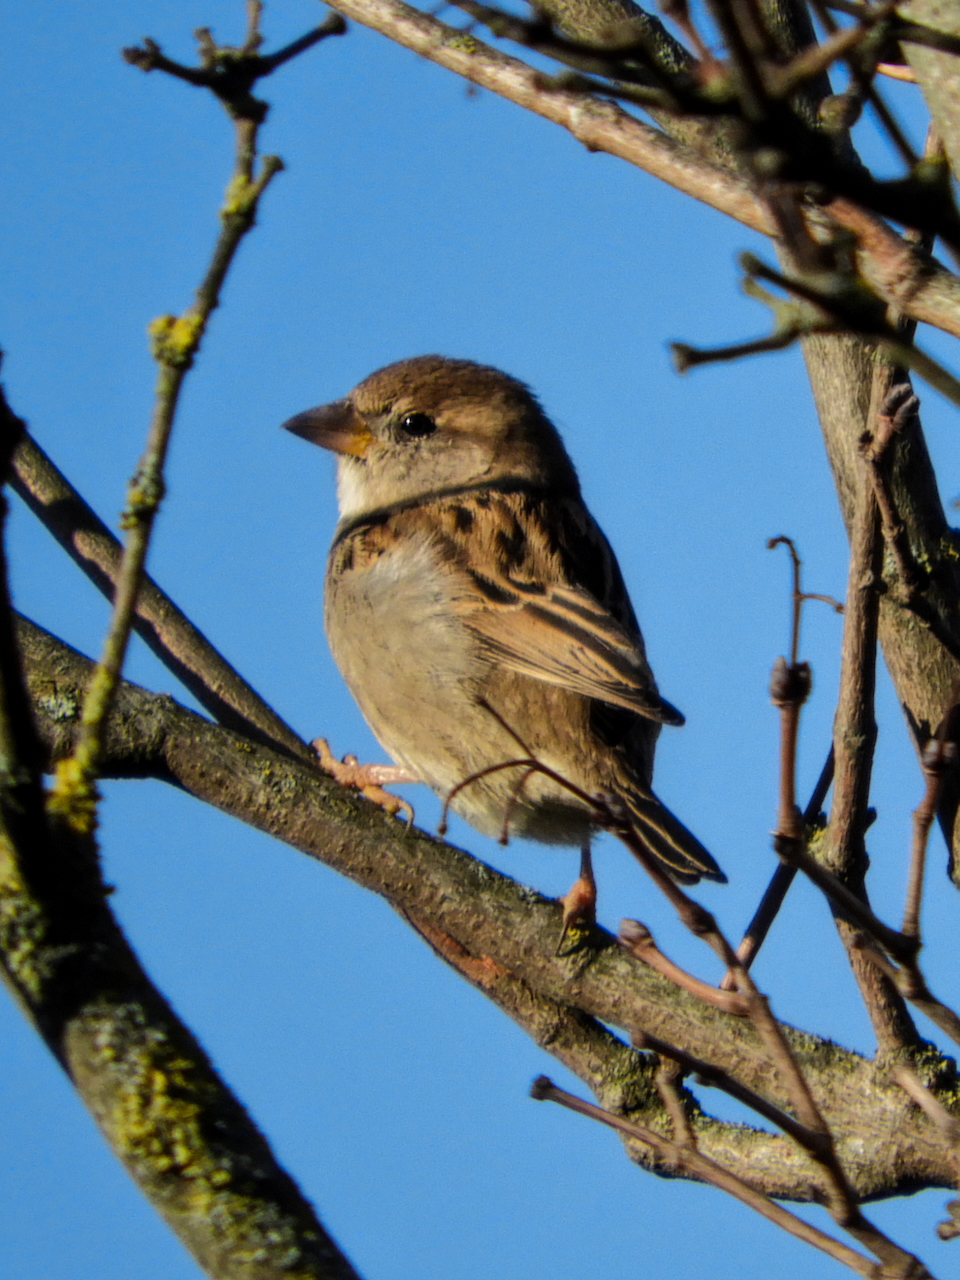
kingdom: Animalia
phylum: Chordata
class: Aves
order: Passeriformes
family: Passeridae
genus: Passer
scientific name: Passer italiae
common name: Italian sparrow
